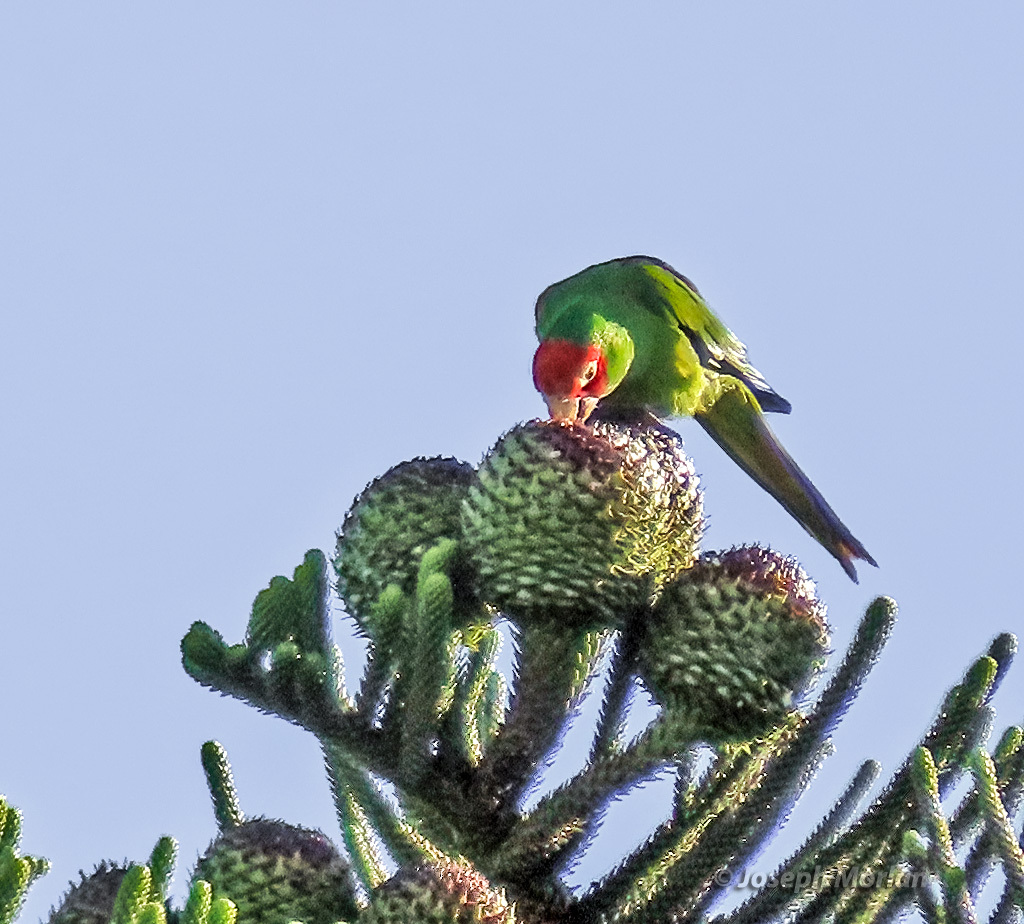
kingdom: Animalia
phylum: Chordata
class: Aves
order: Psittaciformes
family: Psittacidae
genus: Aratinga
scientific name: Aratinga erythrogenys
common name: Red-masked parakeet
